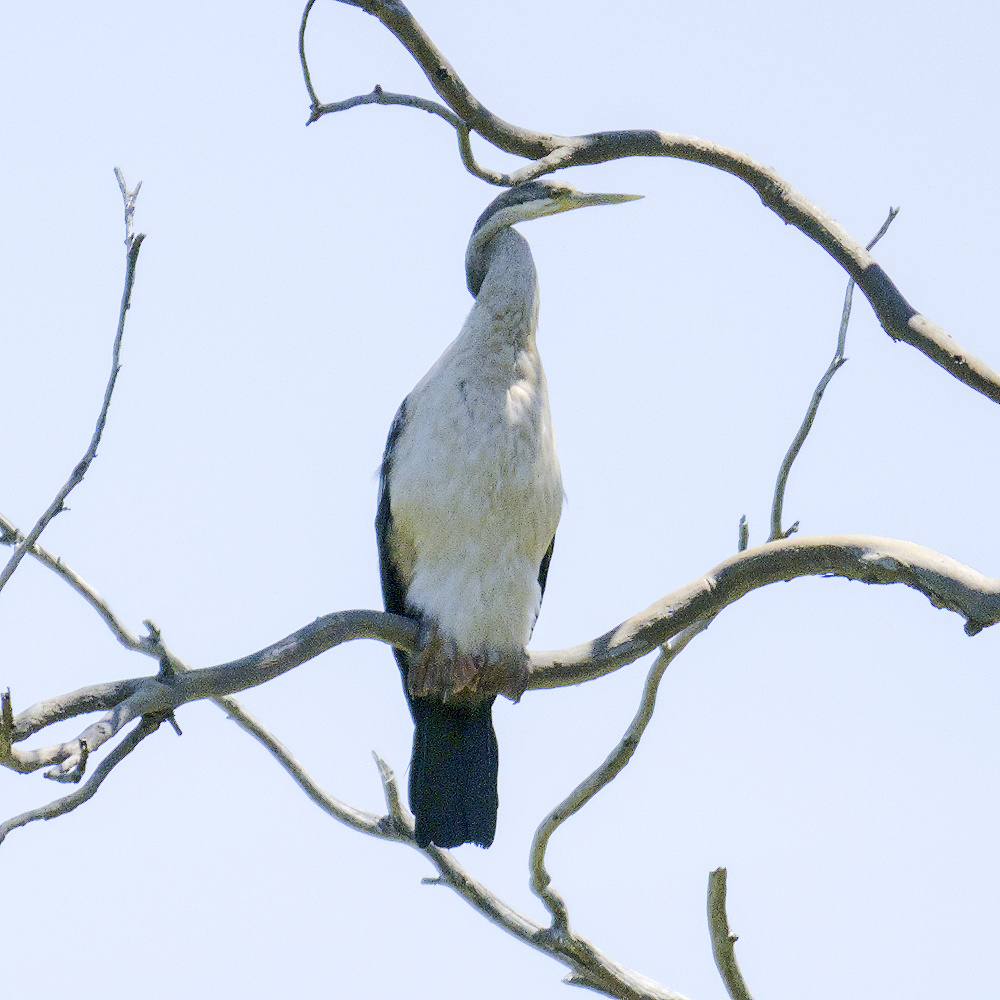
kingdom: Animalia
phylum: Chordata
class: Aves
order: Suliformes
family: Anhingidae
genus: Anhinga
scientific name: Anhinga novaehollandiae
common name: Australasian darter
